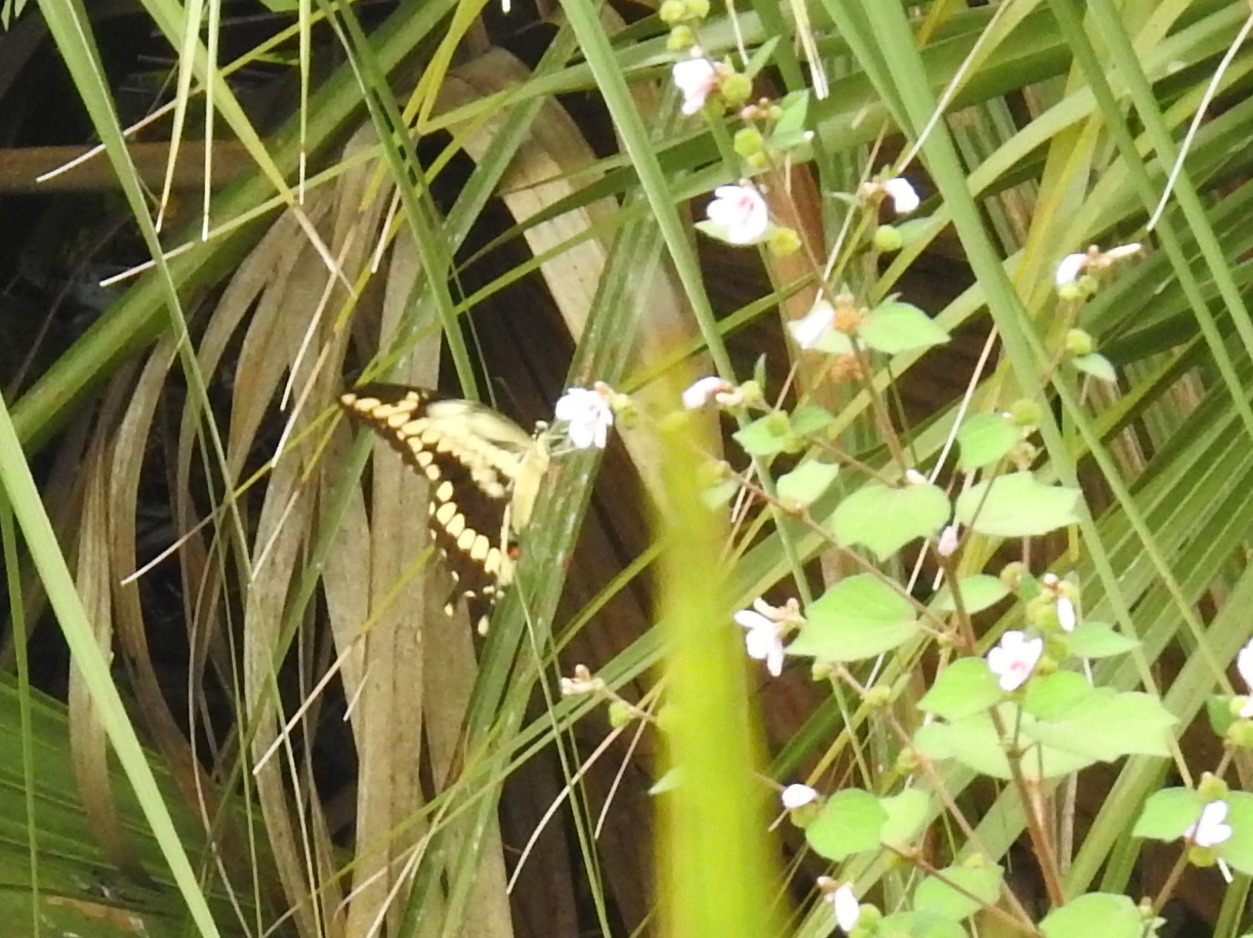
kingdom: Animalia
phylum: Arthropoda
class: Insecta
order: Lepidoptera
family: Papilionidae
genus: Papilio
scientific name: Papilio cresphontes
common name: Giant swallowtail
